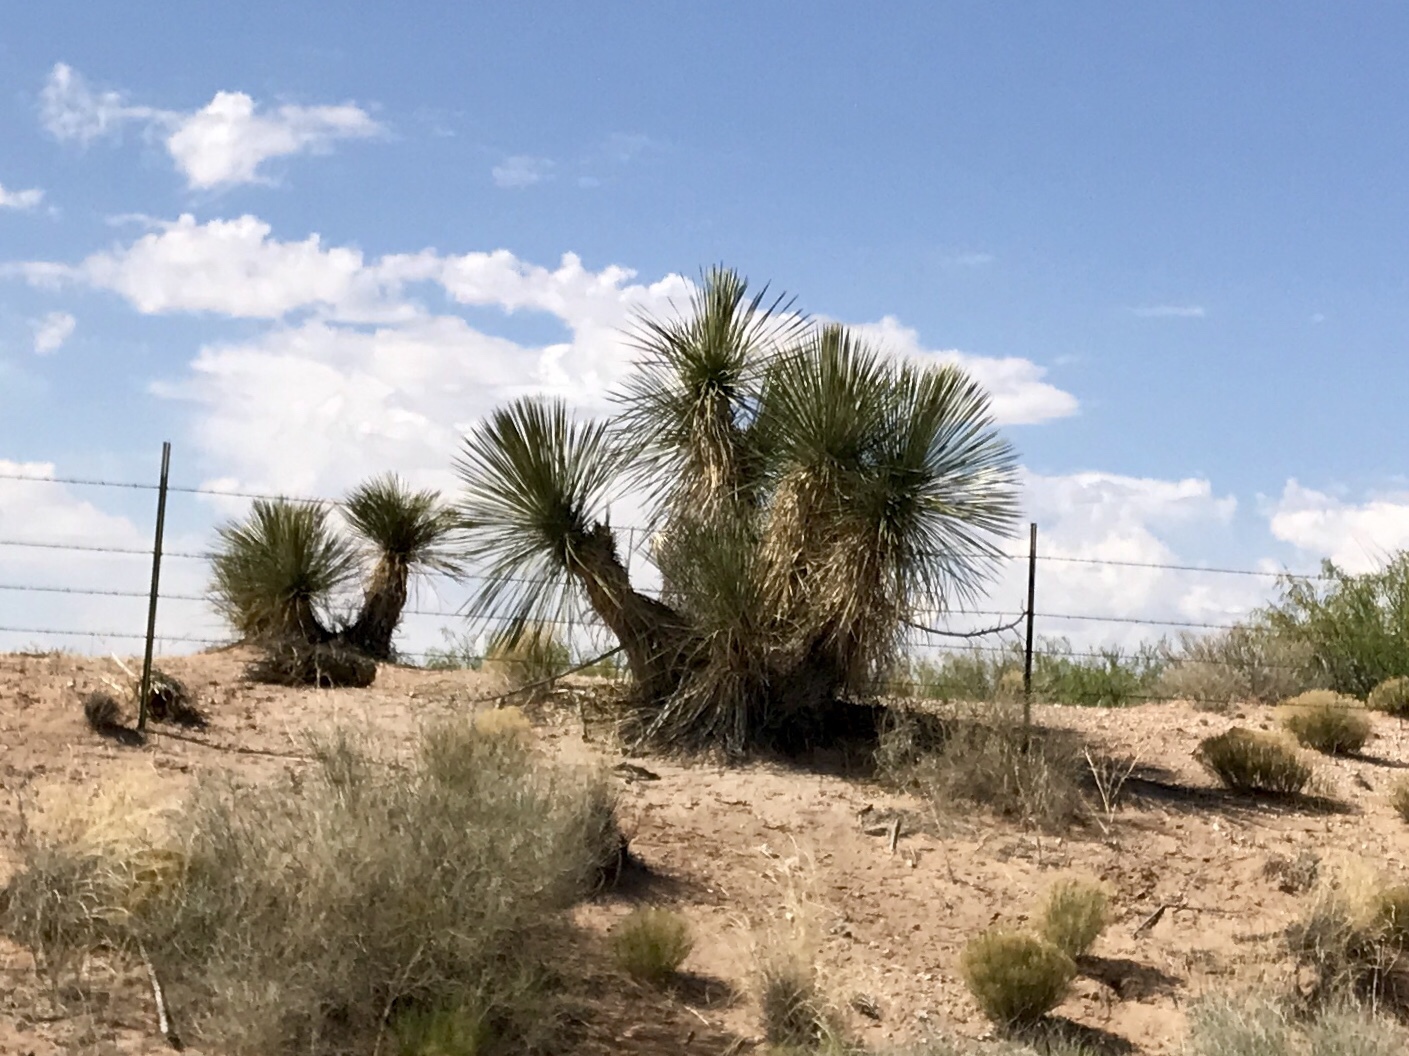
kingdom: Plantae
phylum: Tracheophyta
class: Liliopsida
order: Asparagales
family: Asparagaceae
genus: Yucca
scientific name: Yucca elata
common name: Palmella
